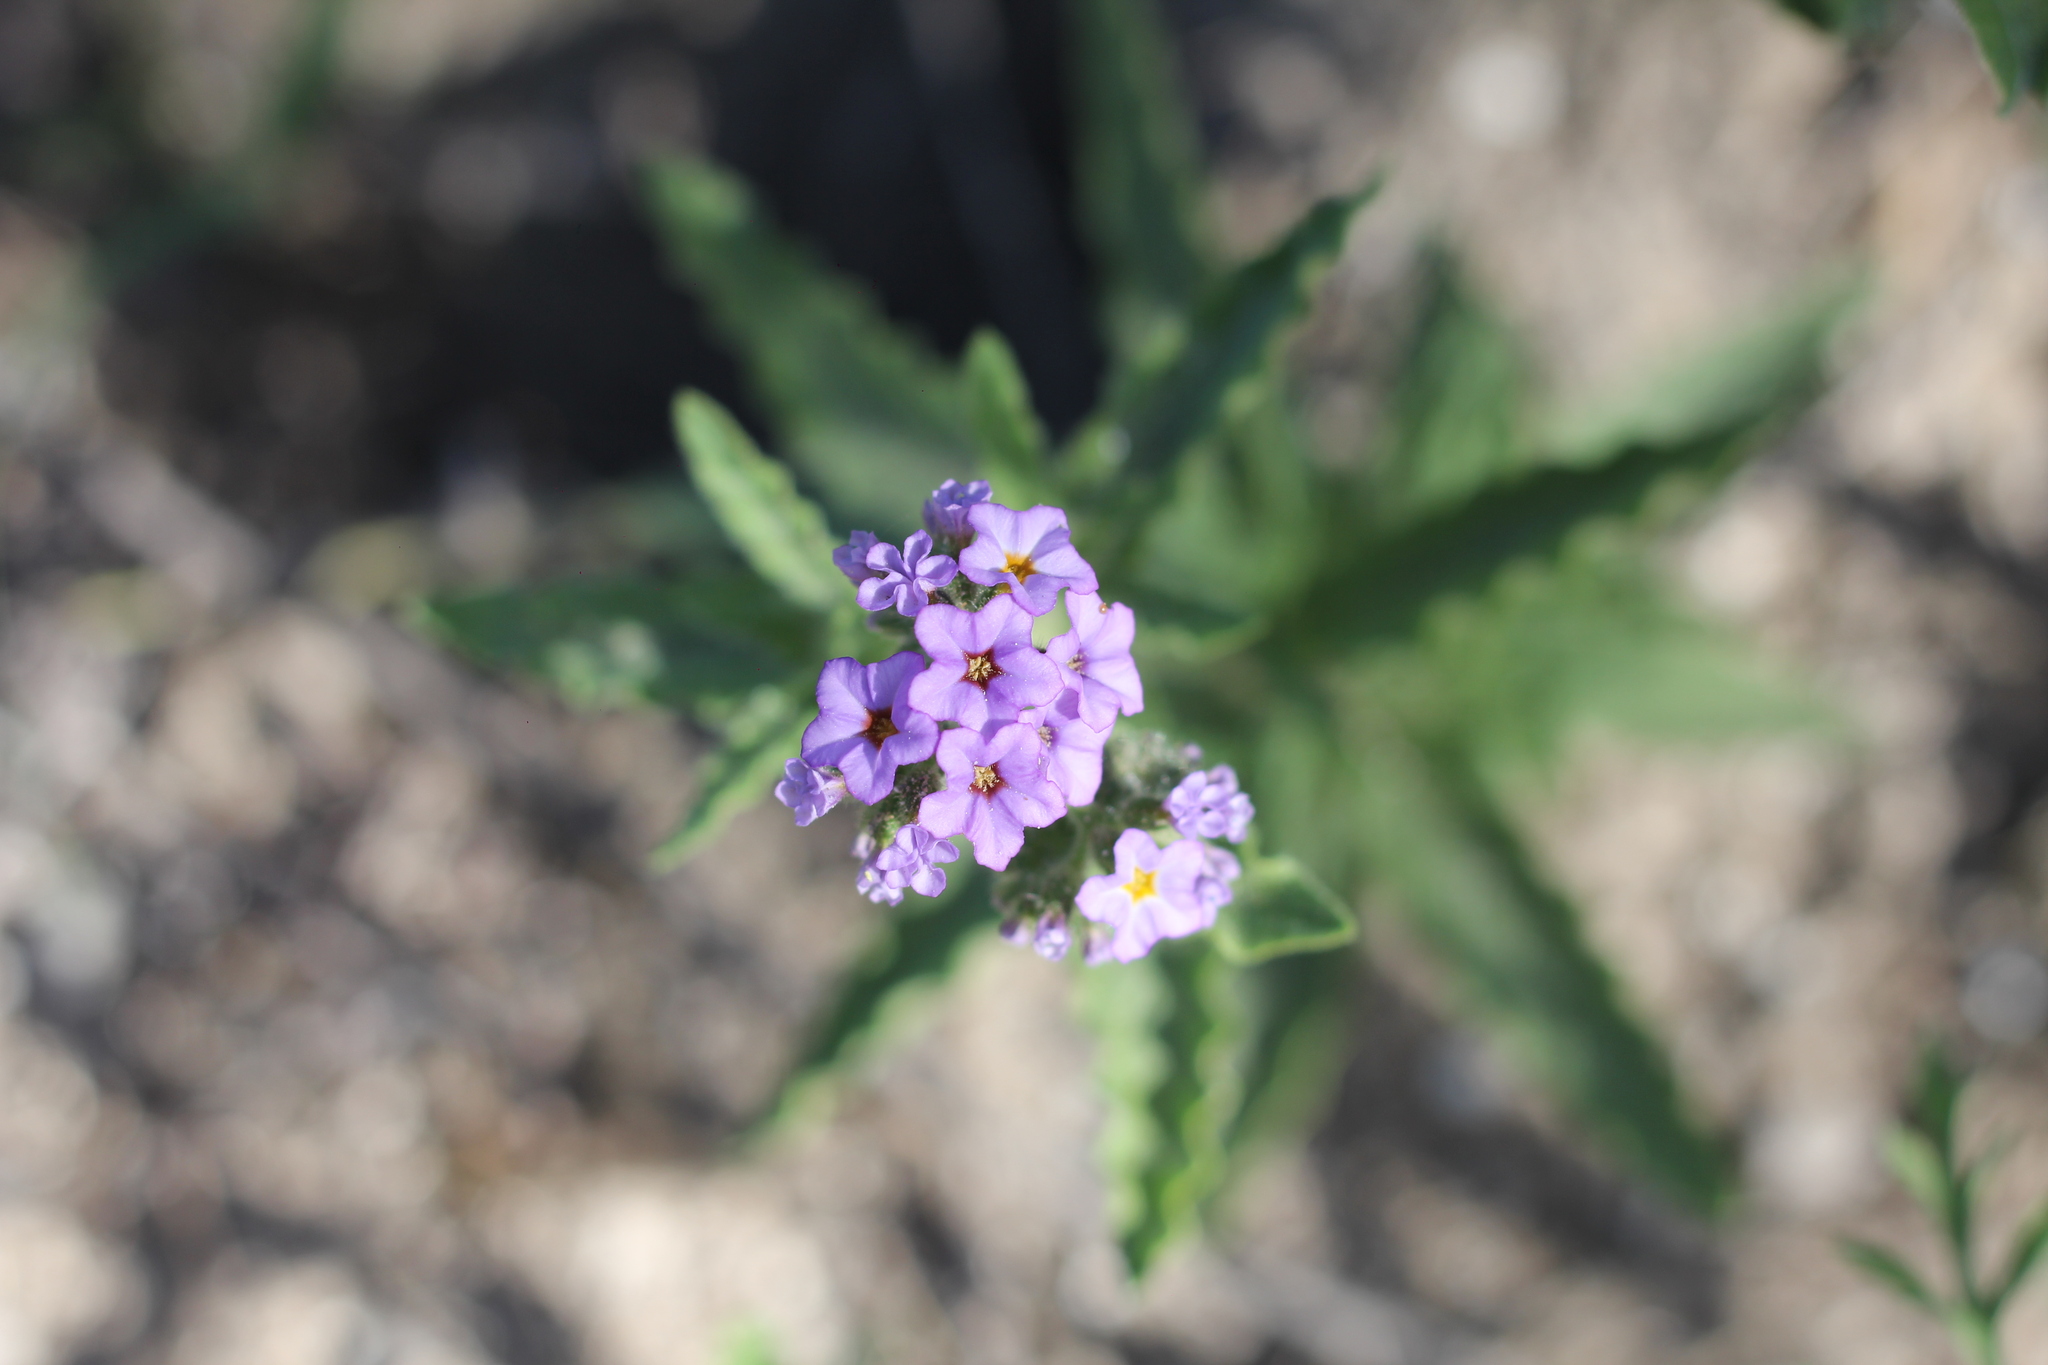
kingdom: Plantae
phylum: Tracheophyta
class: Magnoliopsida
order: Boraginales
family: Heliotropiaceae
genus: Heliotropium
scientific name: Heliotropium amplexicaule
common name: Clasping heliotrope
